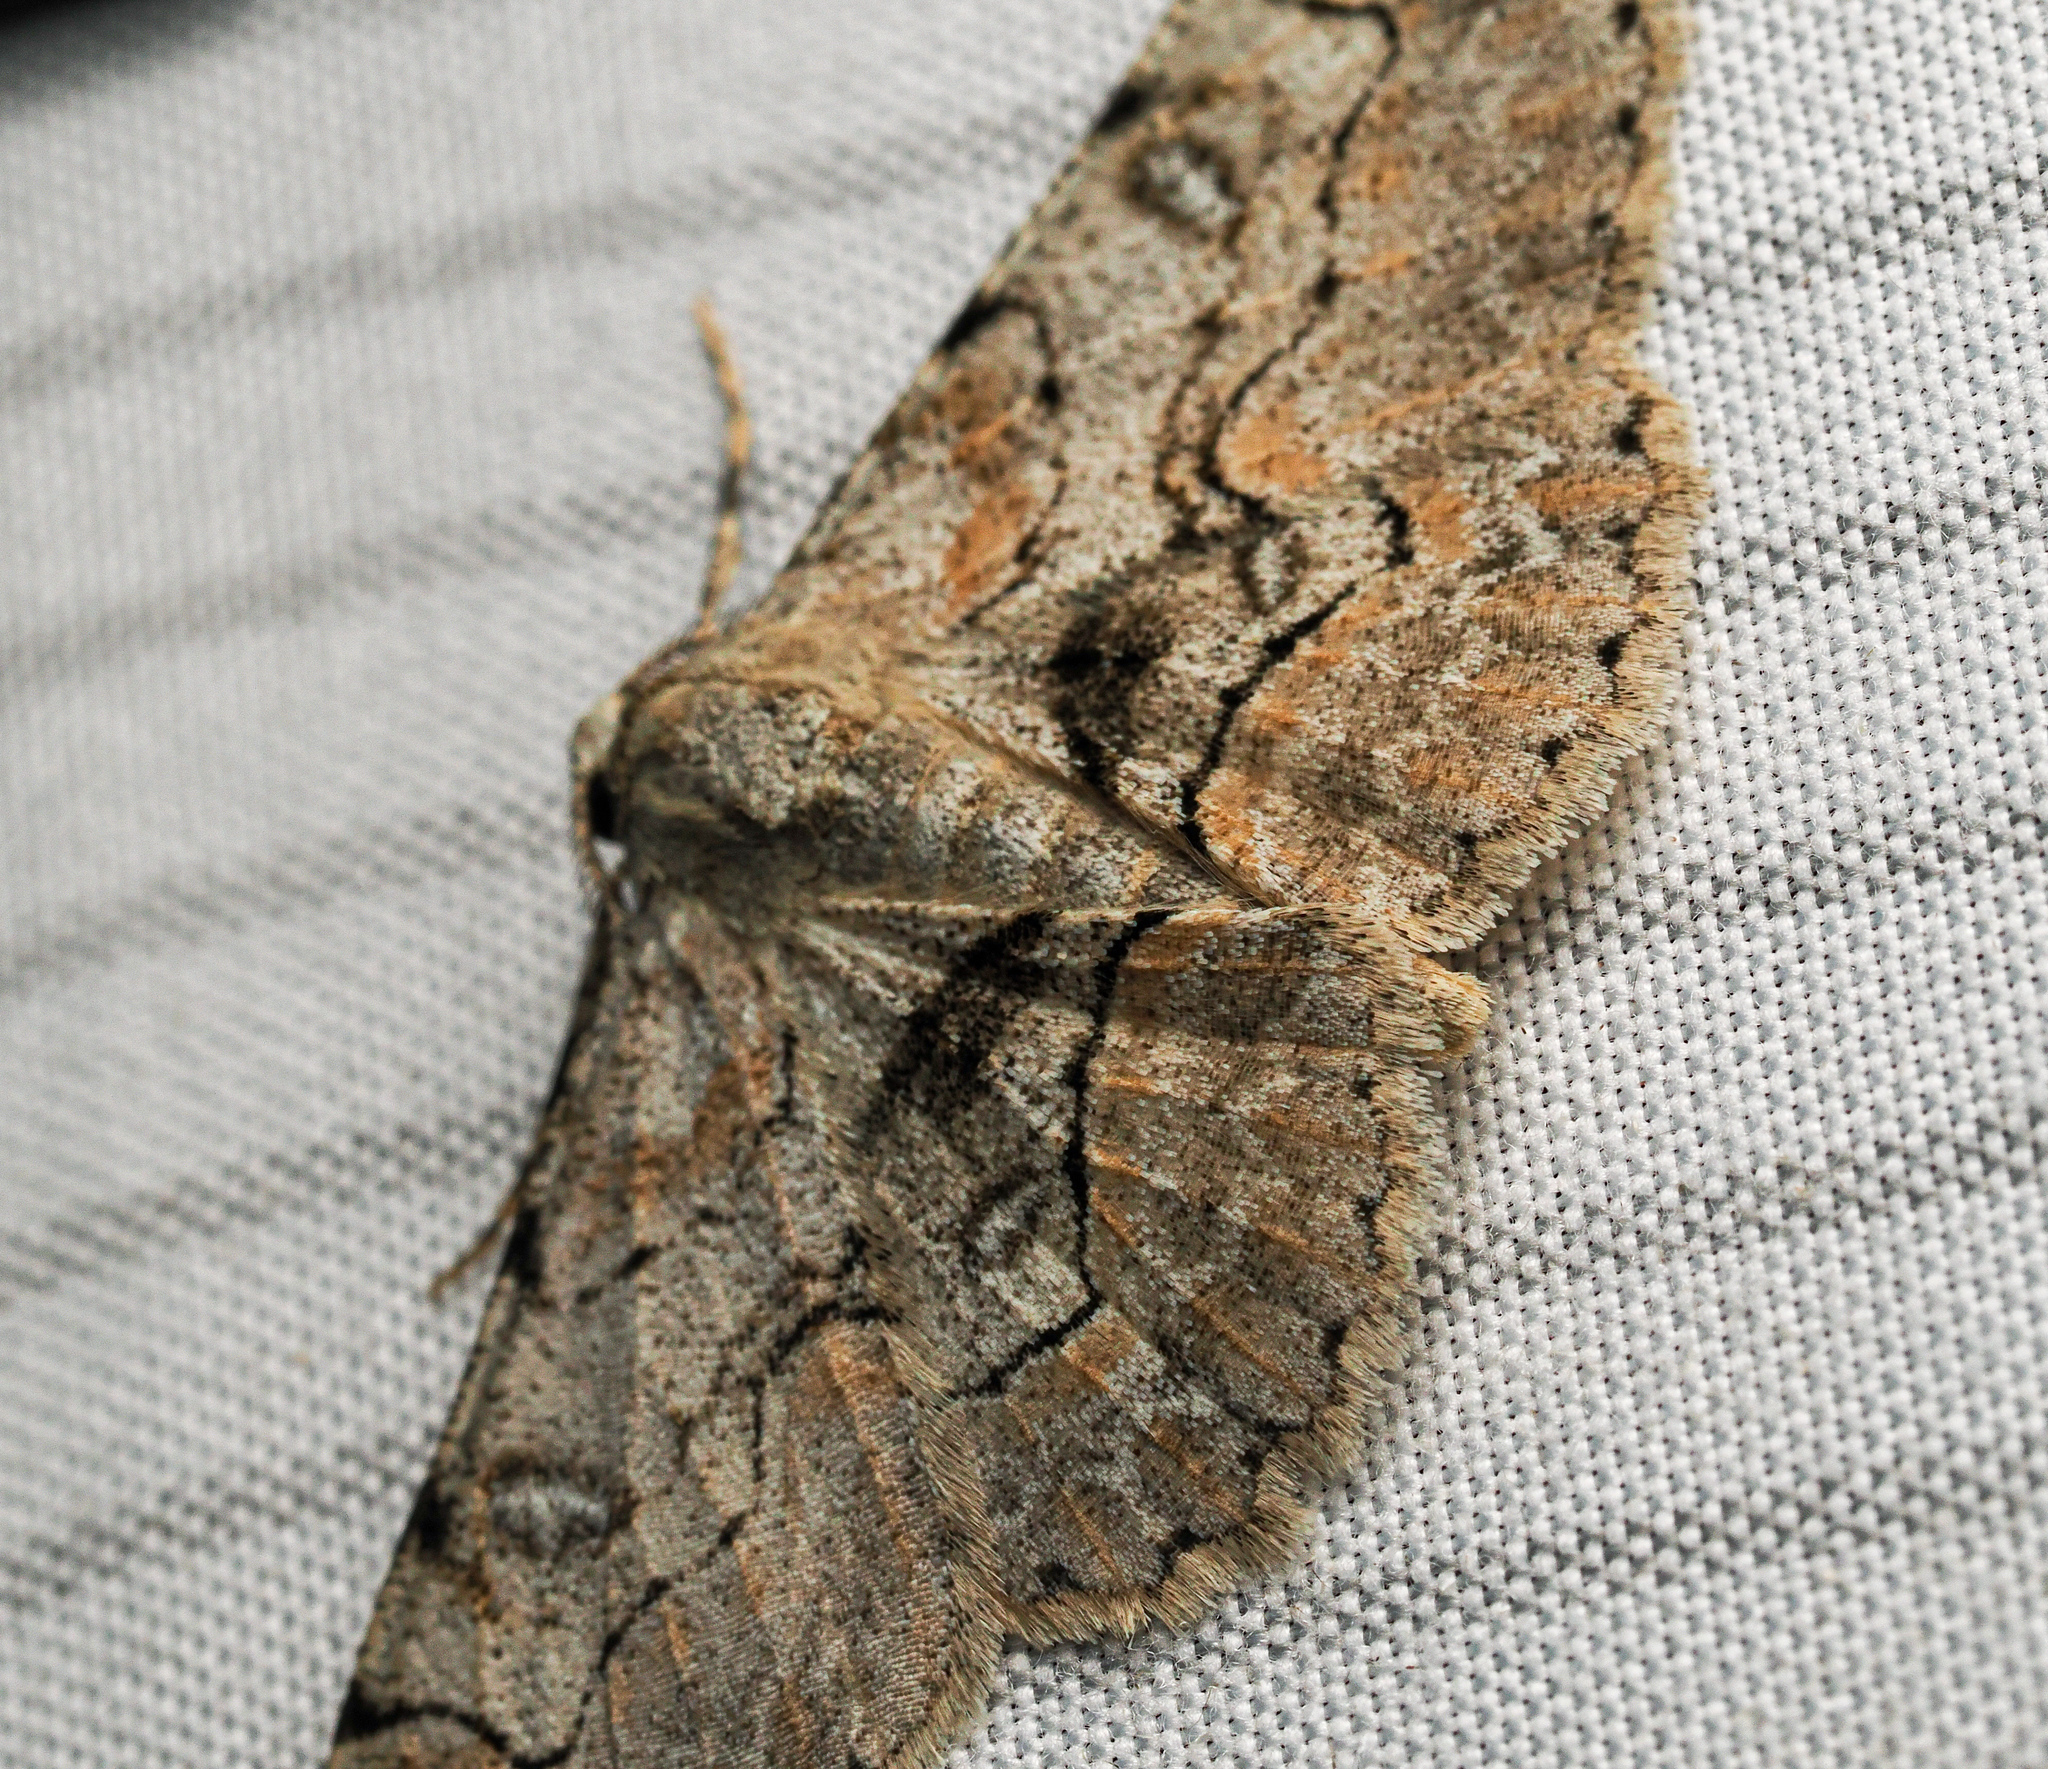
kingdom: Animalia
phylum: Arthropoda
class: Insecta
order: Lepidoptera
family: Geometridae
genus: Iridopsis
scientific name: Iridopsis larvaria
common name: Bent-line gray
